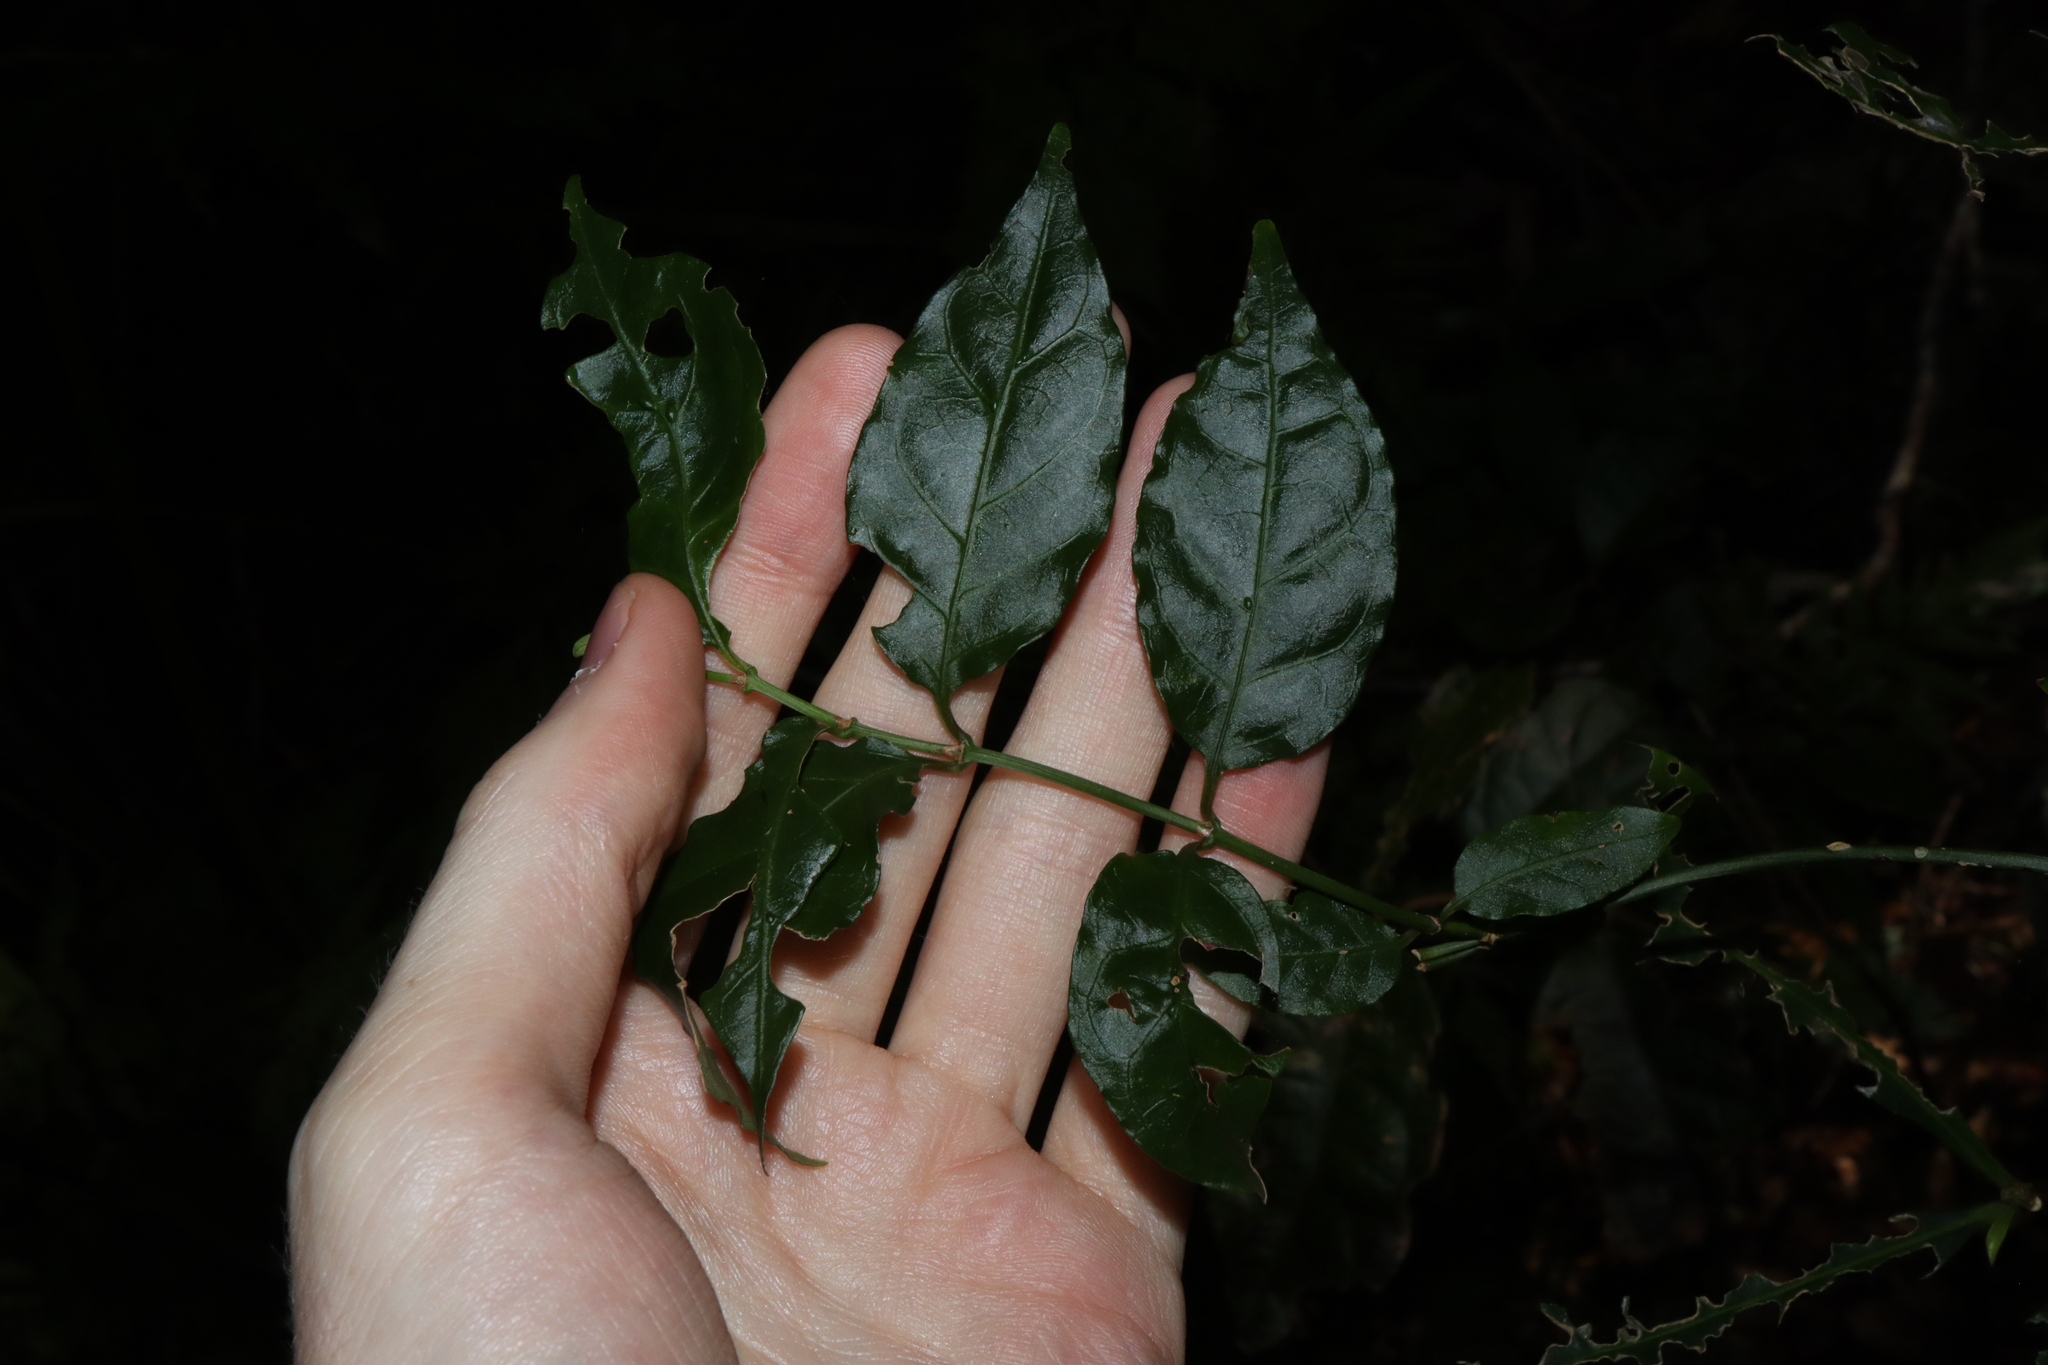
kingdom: Plantae
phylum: Tracheophyta
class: Magnoliopsida
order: Gentianales
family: Rubiaceae
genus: Gynochthodes
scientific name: Gynochthodes jasminoides
